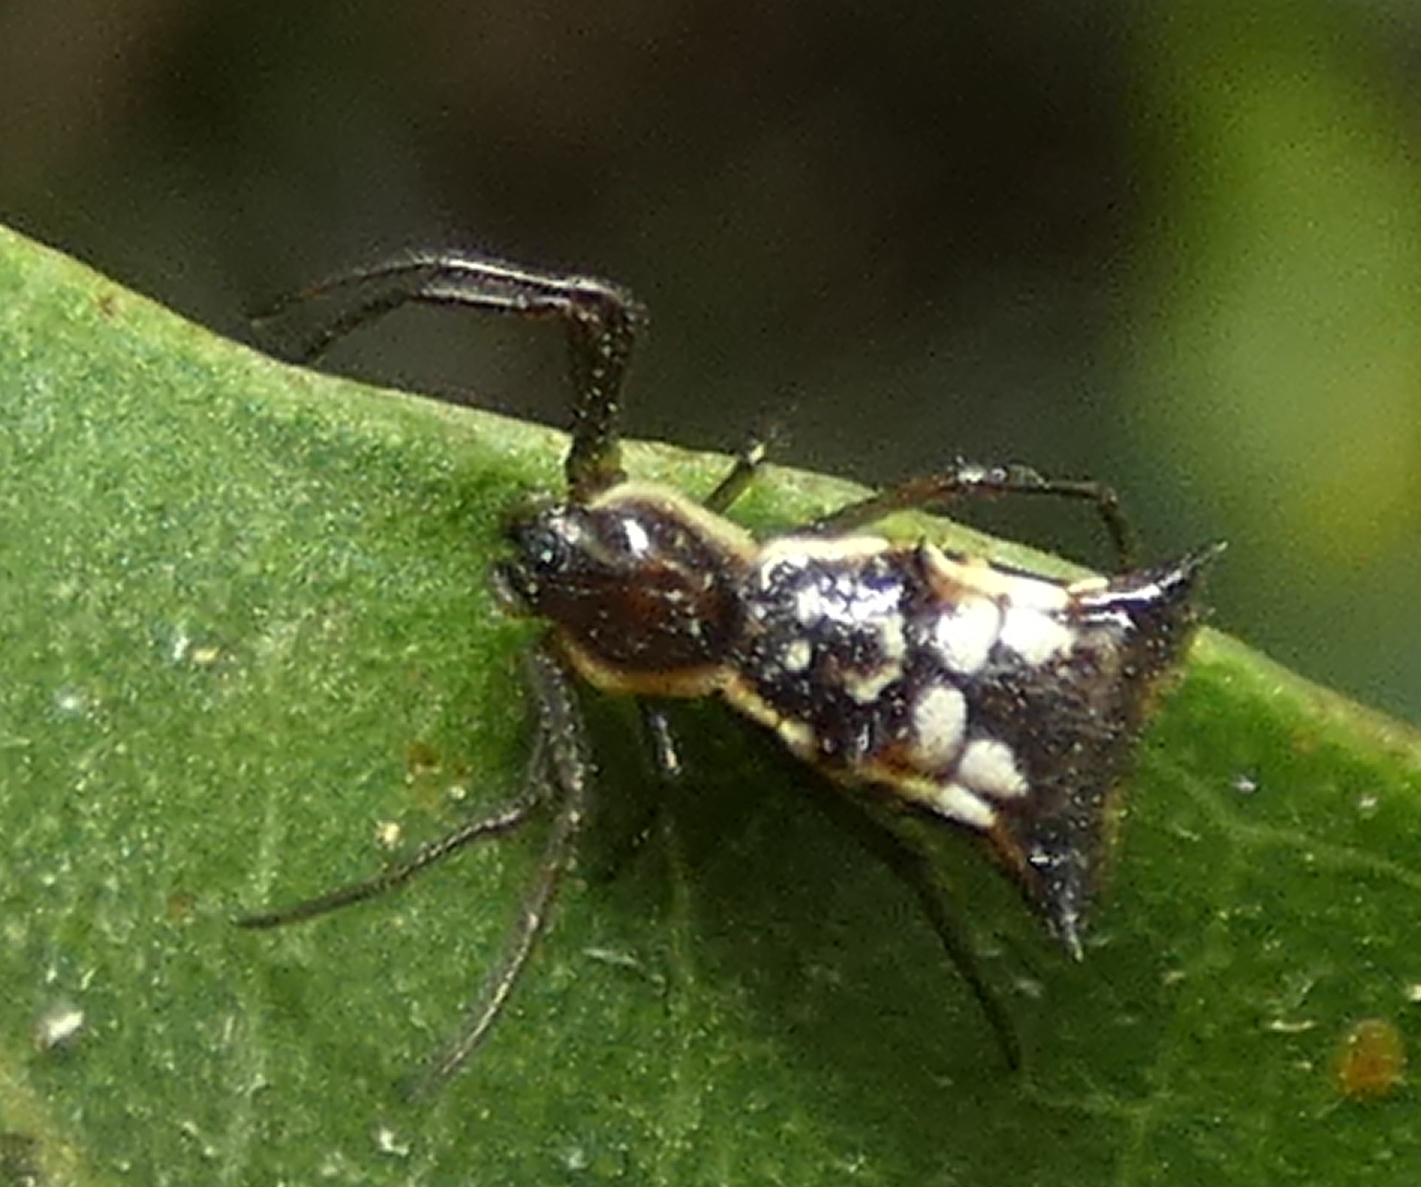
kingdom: Animalia
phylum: Arthropoda
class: Arachnida
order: Araneae
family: Araneidae
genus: Micrathena
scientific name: Micrathena fissispina
